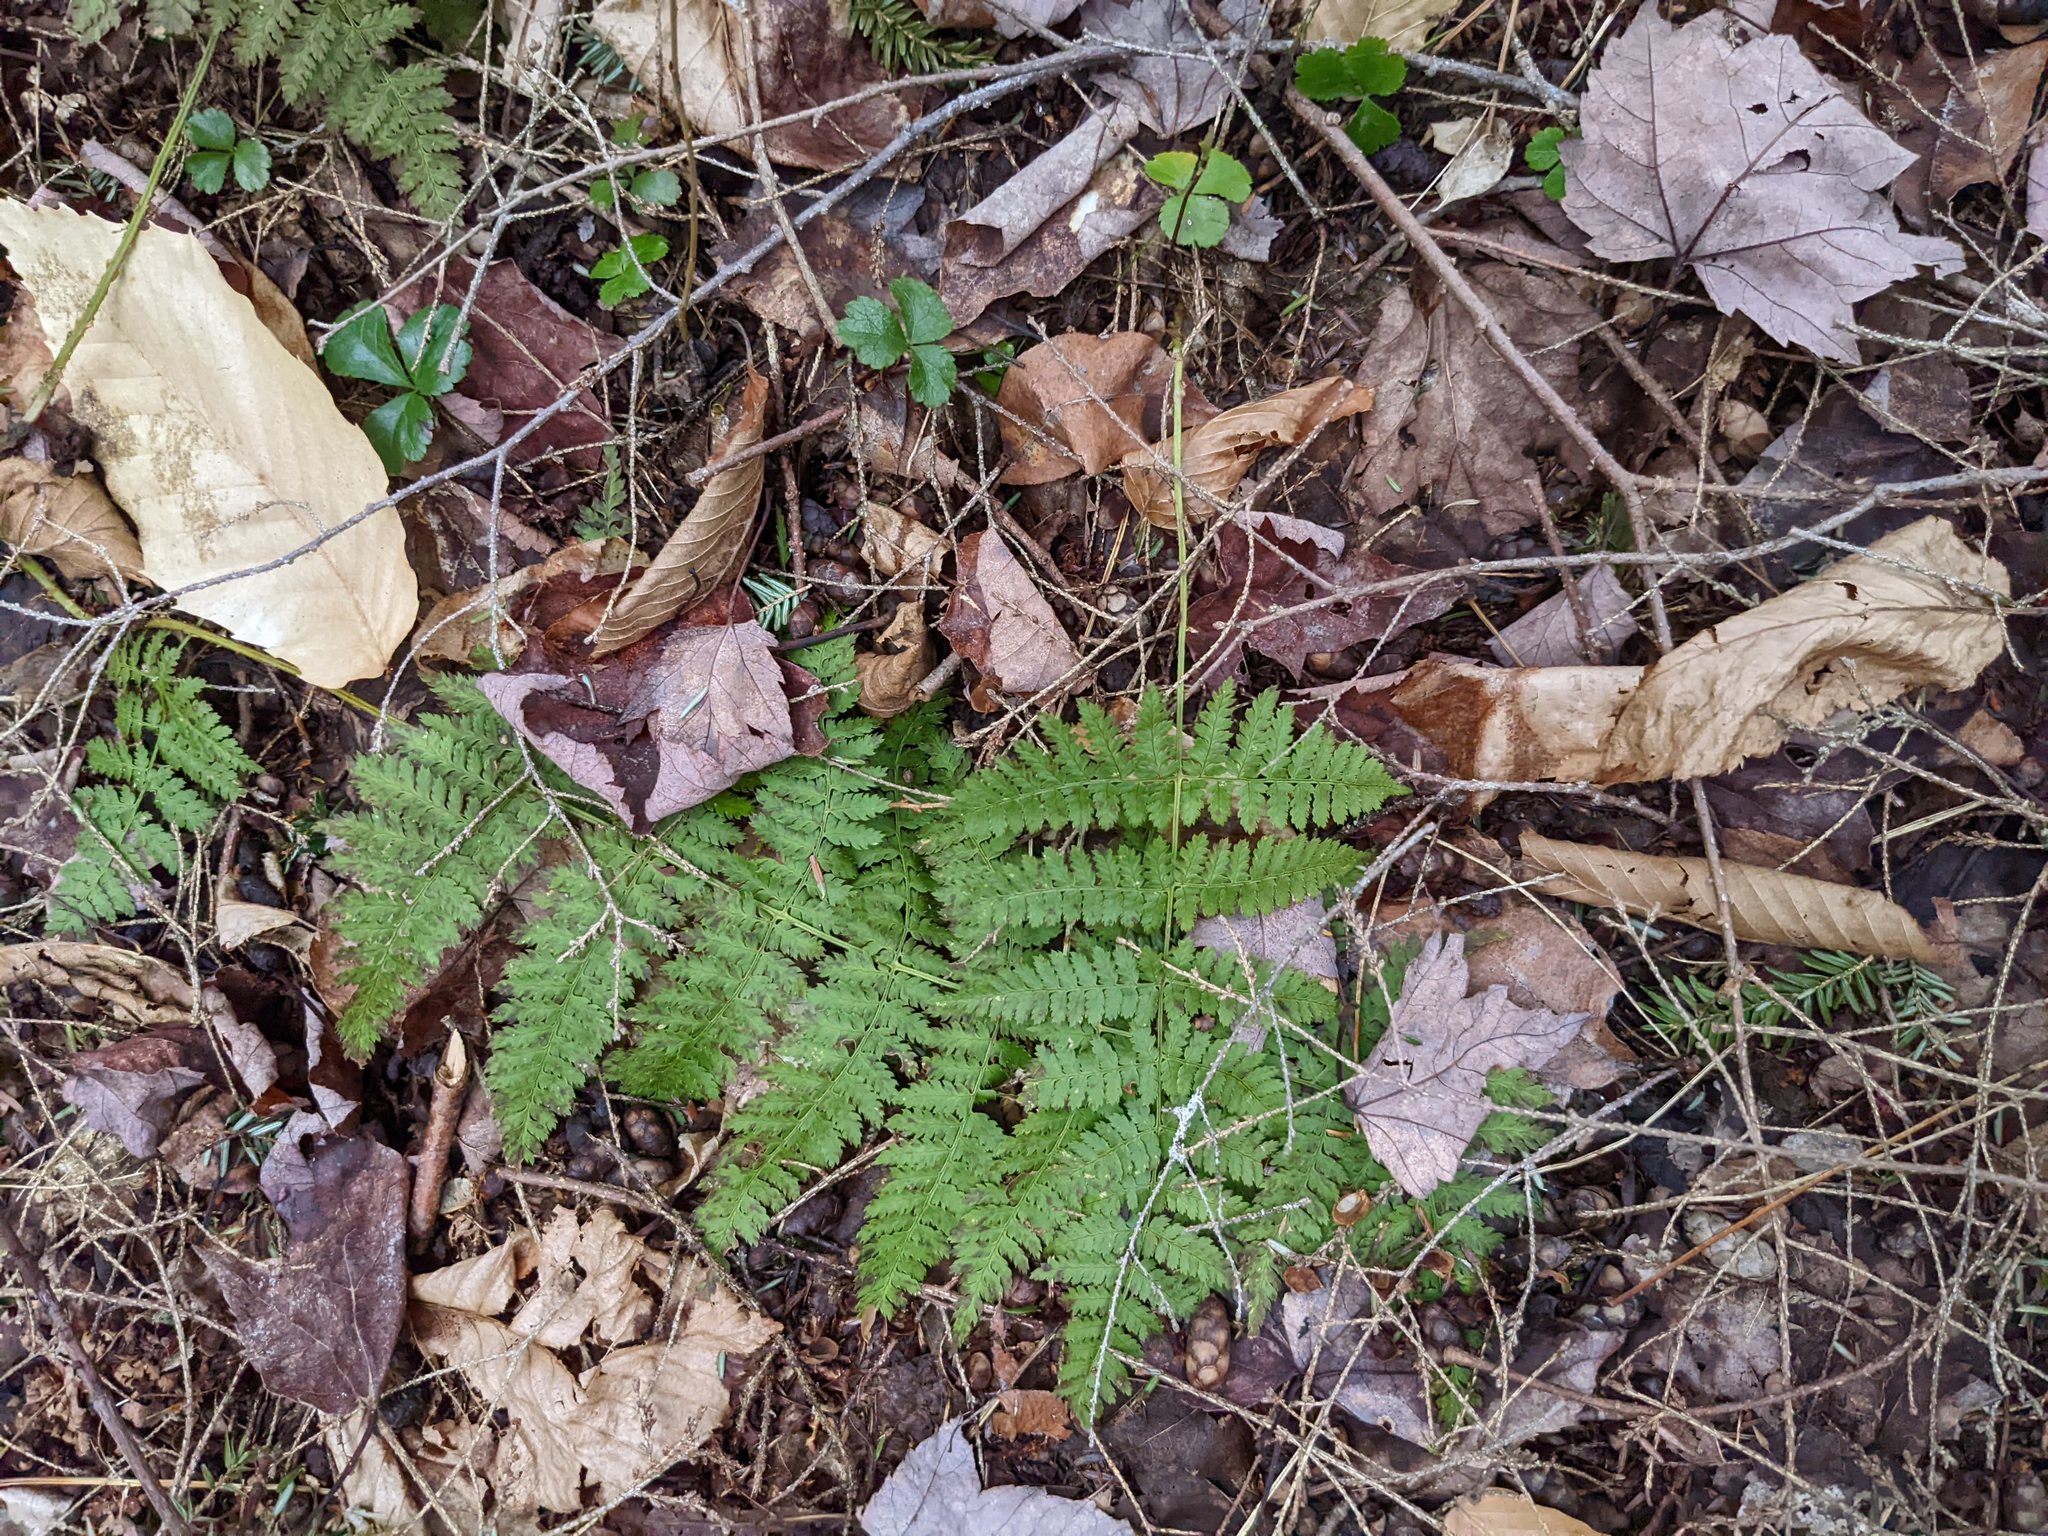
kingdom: Plantae
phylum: Tracheophyta
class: Polypodiopsida
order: Polypodiales
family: Dryopteridaceae
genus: Dryopteris
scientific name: Dryopteris intermedia
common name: Evergreen wood fern
